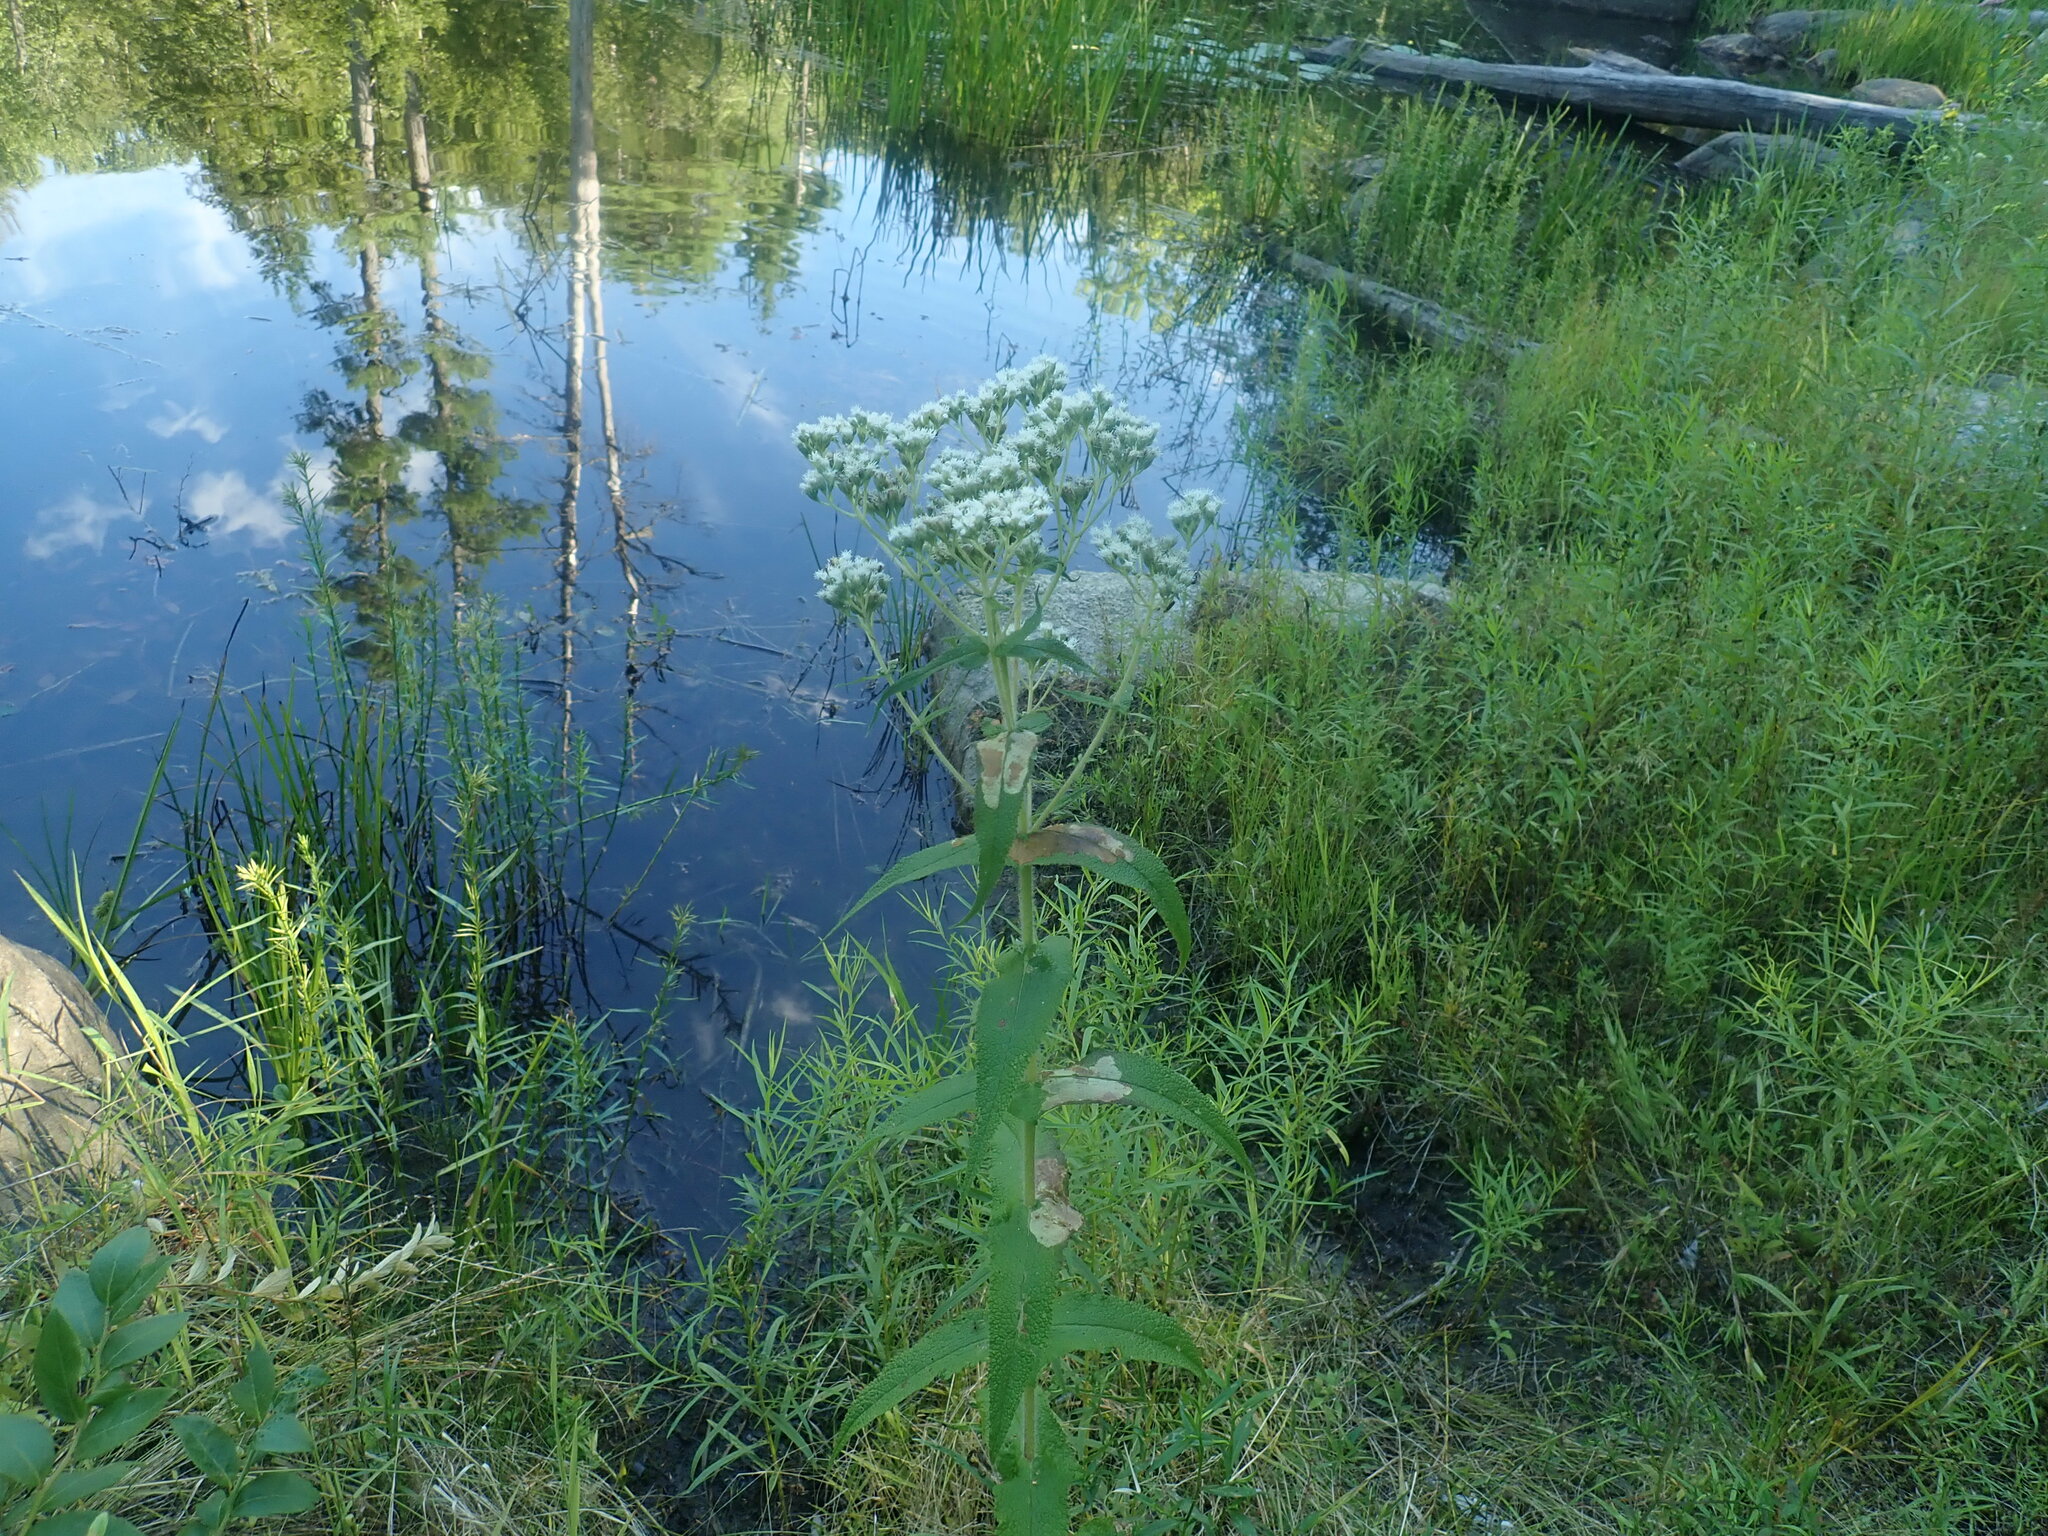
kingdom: Plantae
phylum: Tracheophyta
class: Magnoliopsida
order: Asterales
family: Asteraceae
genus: Eupatorium
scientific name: Eupatorium perfoliatum
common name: Boneset
